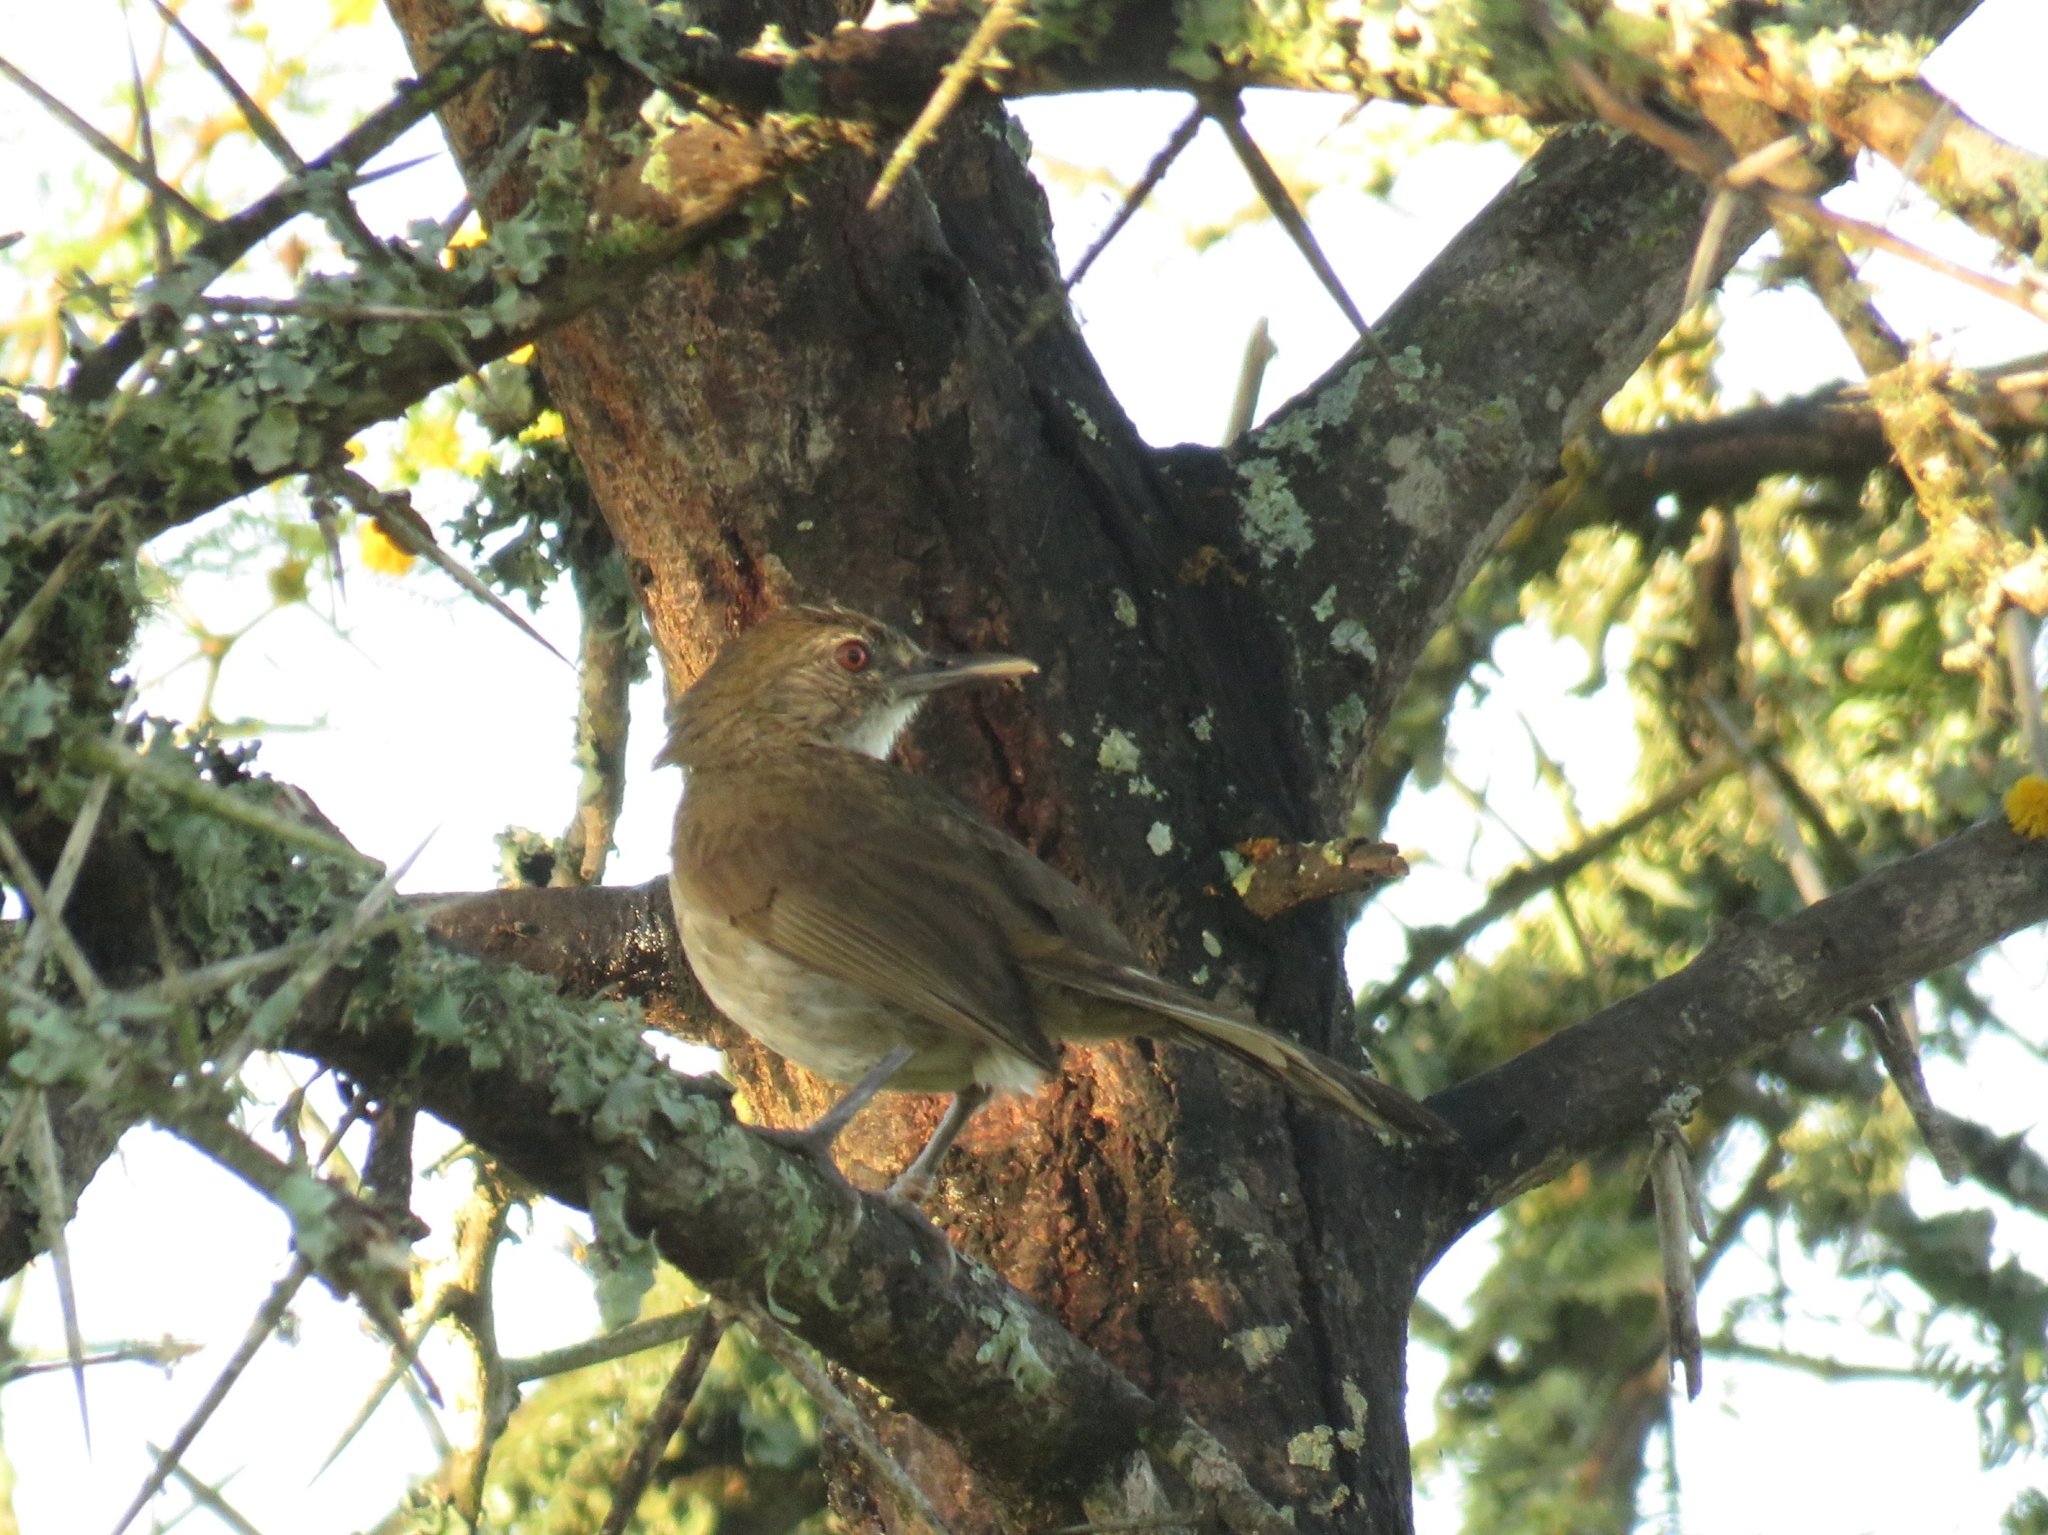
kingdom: Animalia
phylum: Chordata
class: Aves
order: Passeriformes
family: Pycnonotidae
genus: Phyllastrephus
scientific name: Phyllastrephus terrestris
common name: Terrestrial brownbul
